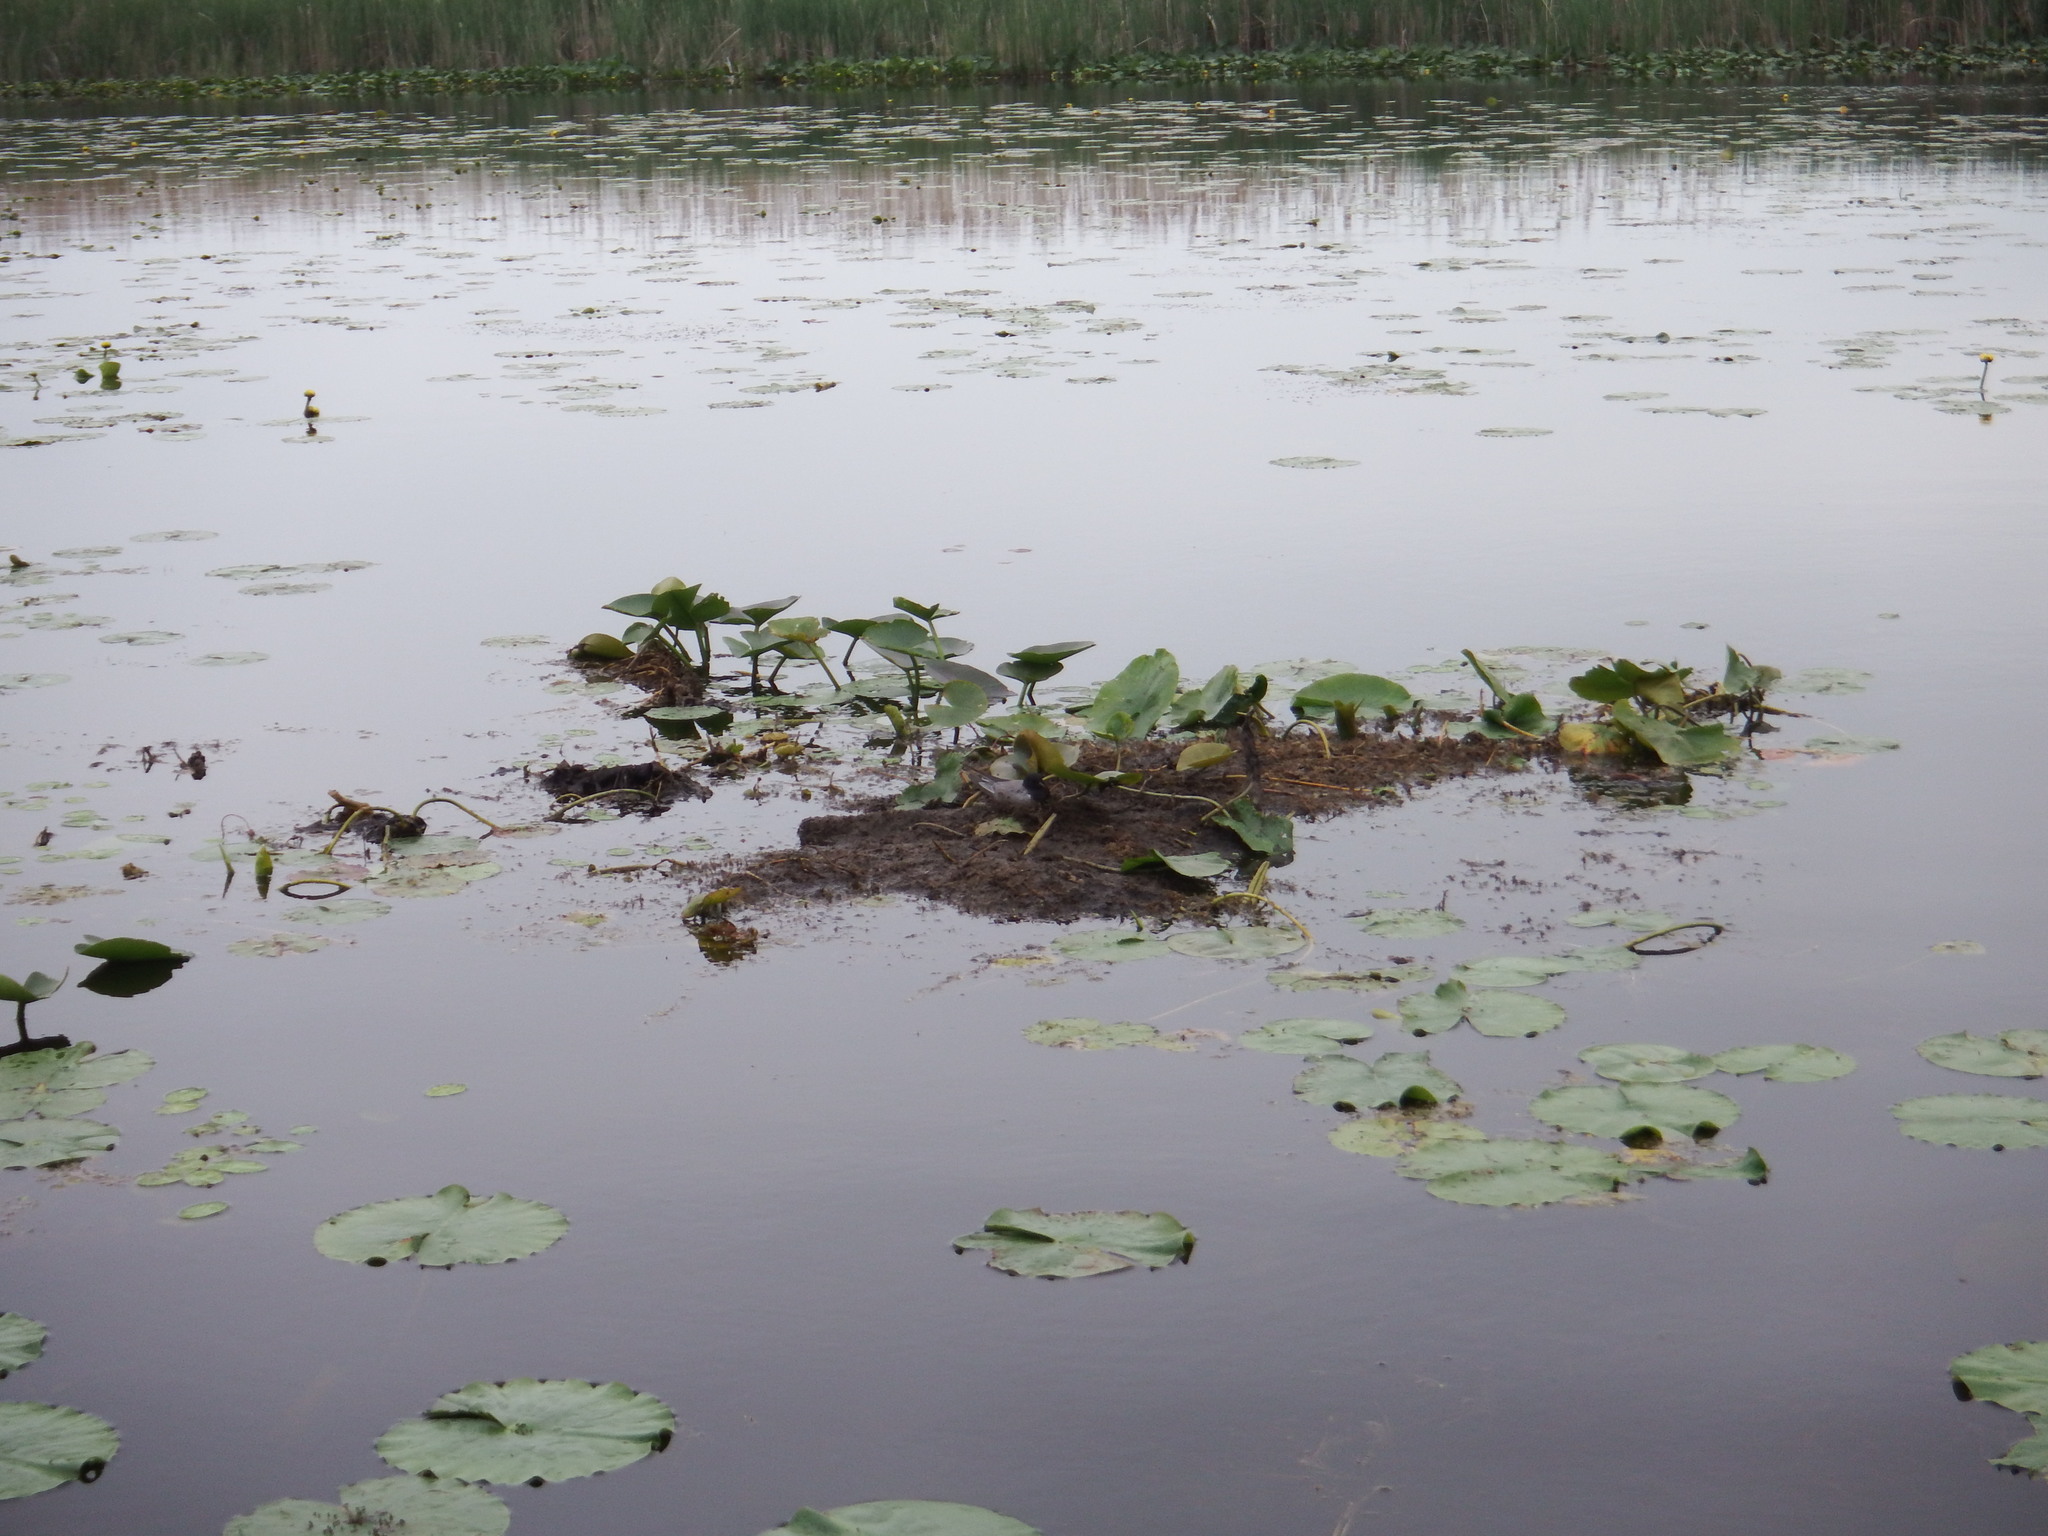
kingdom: Animalia
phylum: Chordata
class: Aves
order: Charadriiformes
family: Laridae
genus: Chlidonias
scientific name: Chlidonias niger
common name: Black tern
